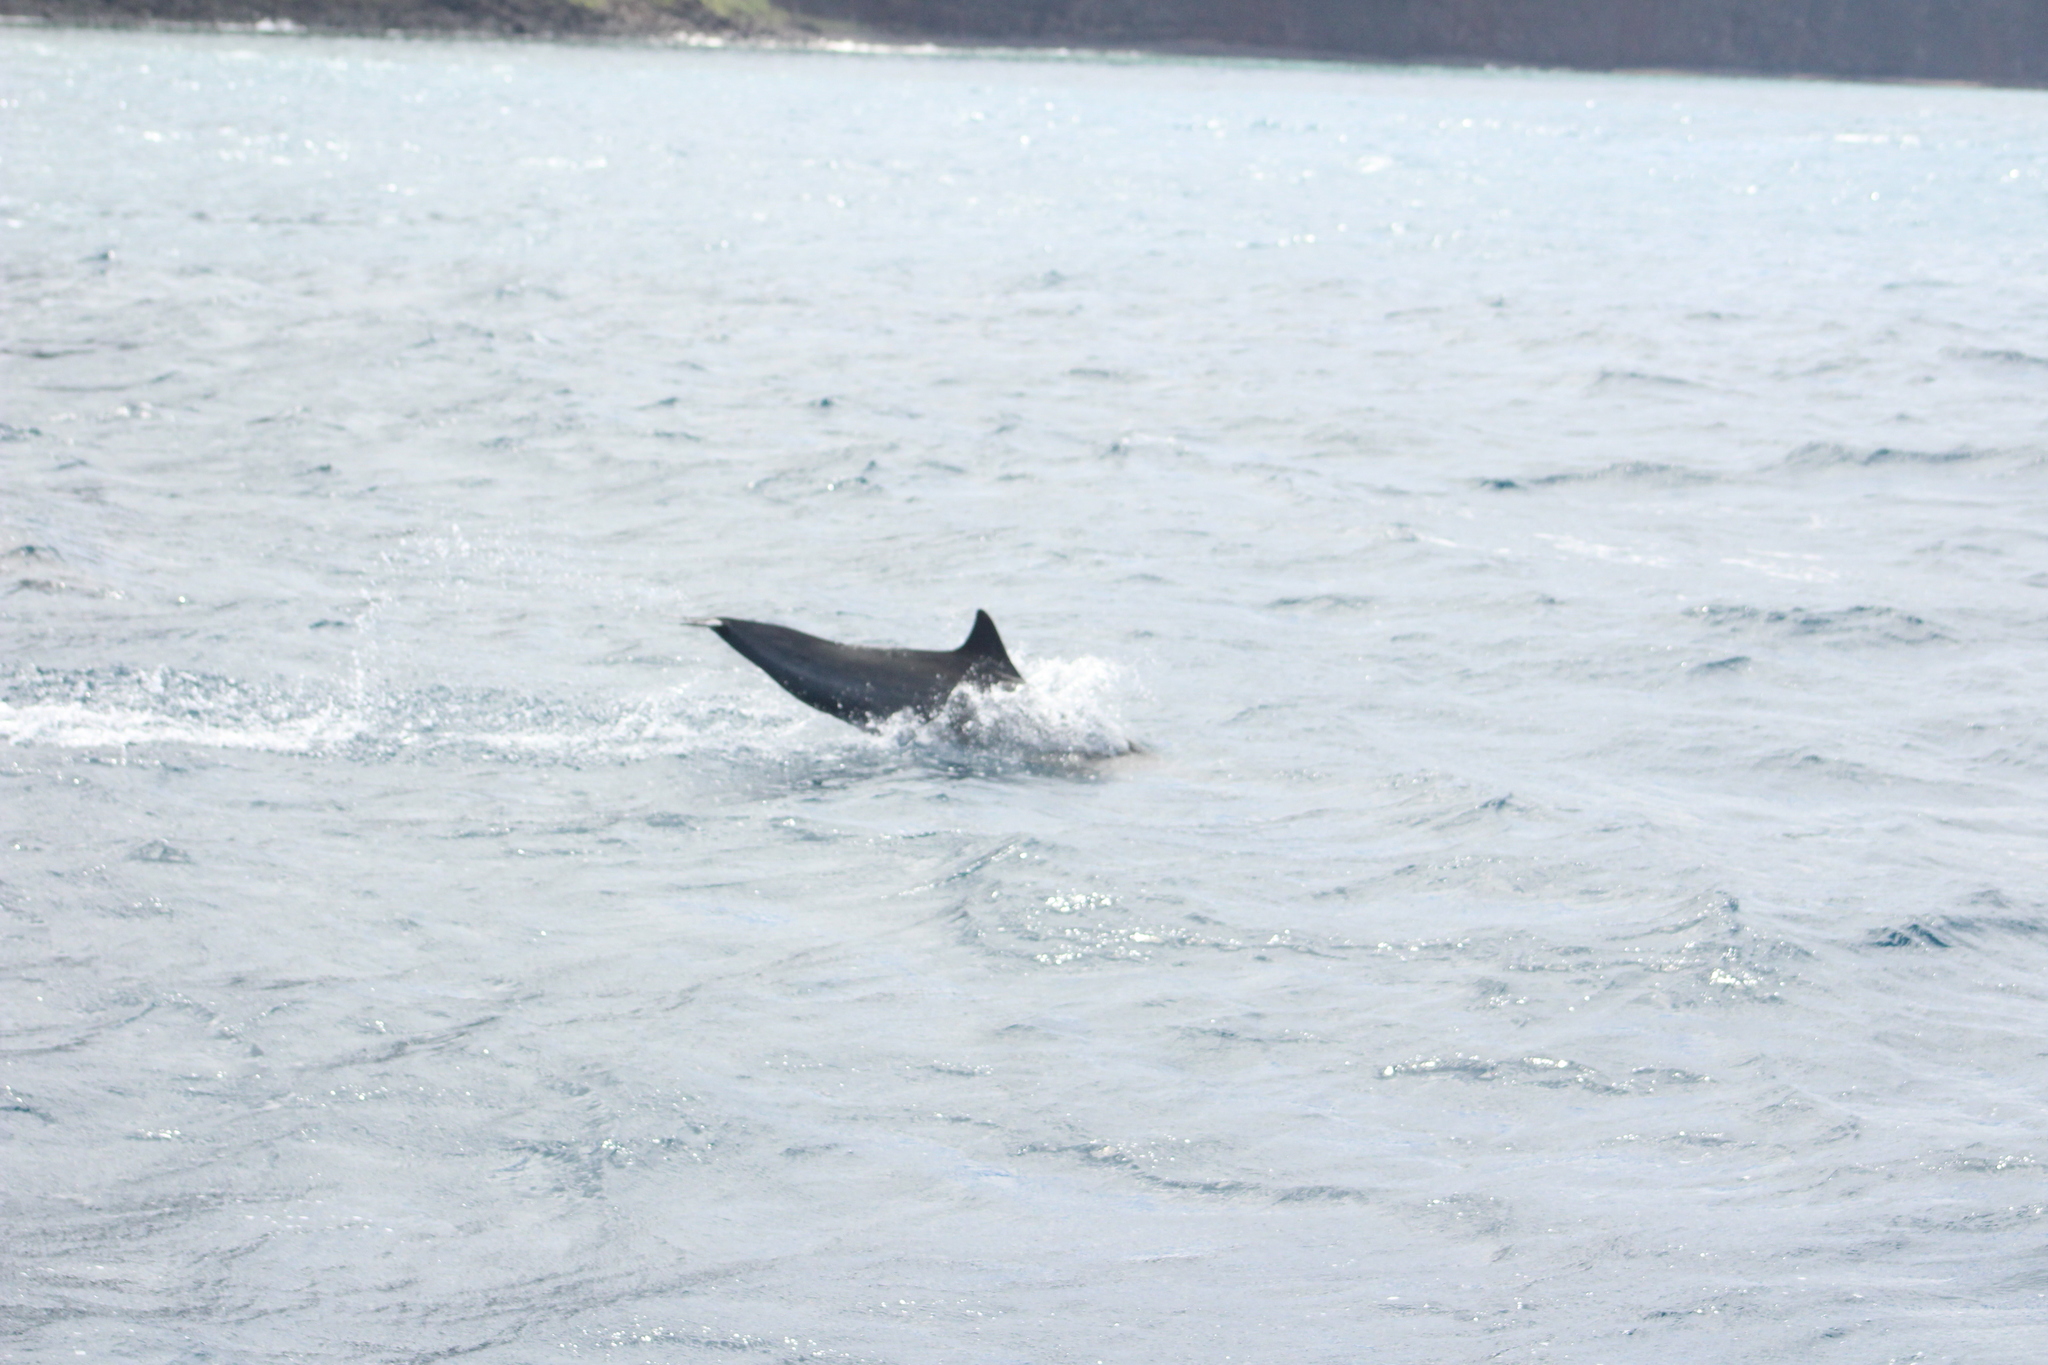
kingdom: Animalia
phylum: Chordata
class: Mammalia
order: Cetacea
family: Delphinidae
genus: Stenella
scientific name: Stenella longirostris
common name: Spinner dolphin
